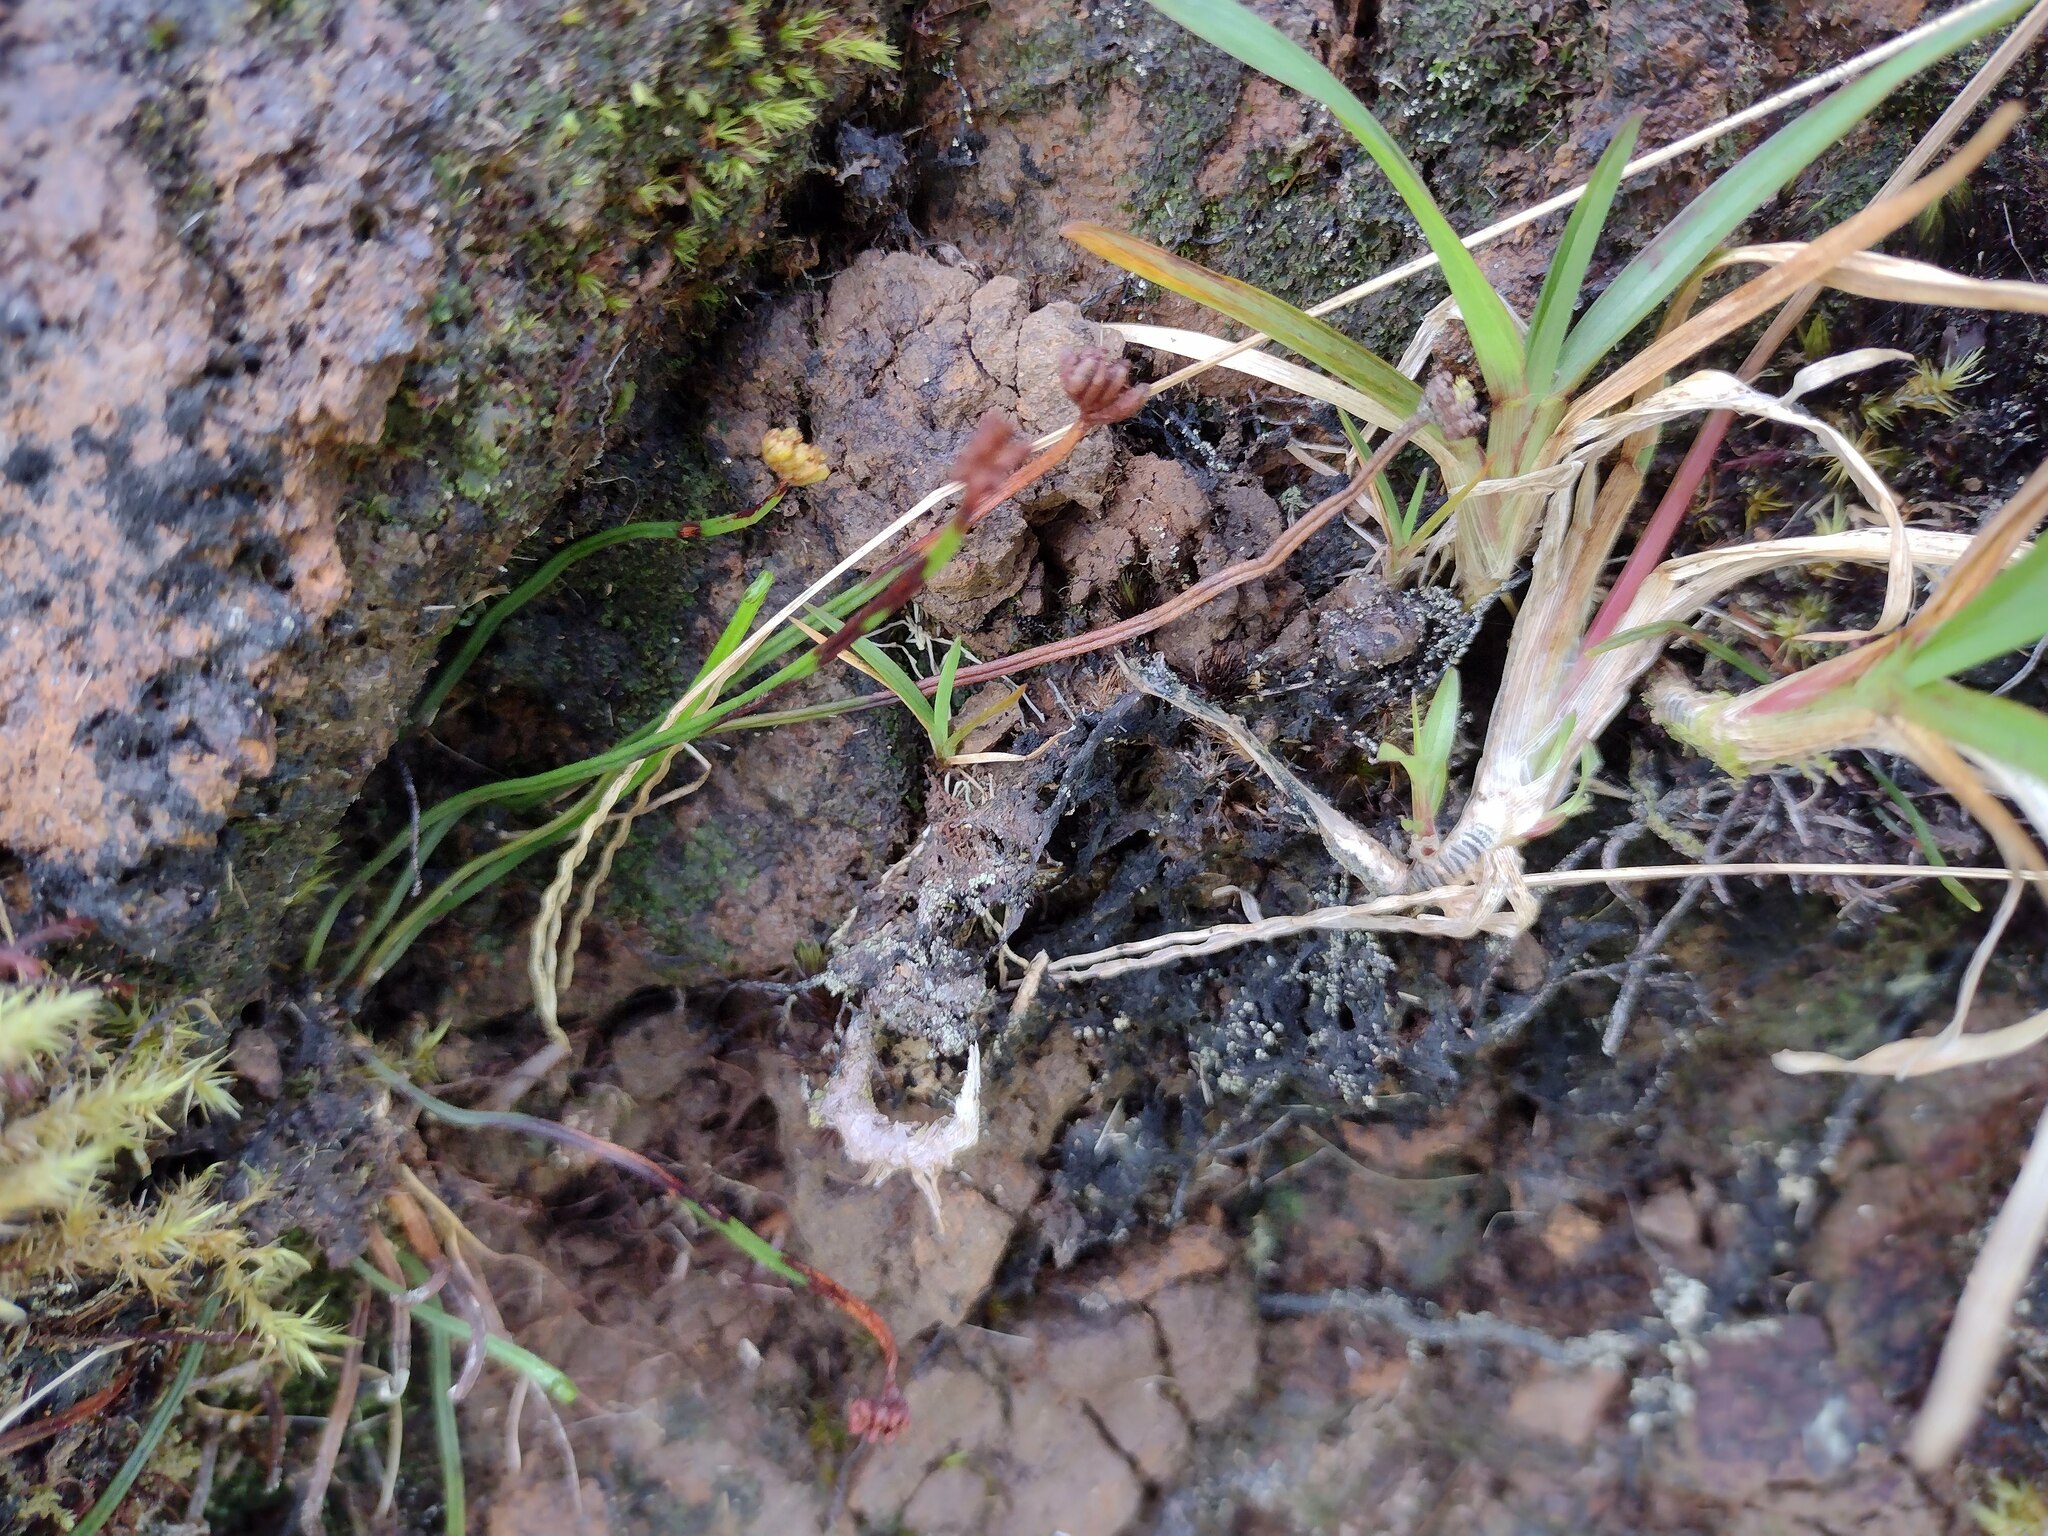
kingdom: Plantae
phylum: Tracheophyta
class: Polypodiopsida
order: Schizaeales
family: Schizaeaceae
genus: Microschizaea
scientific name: Microschizaea robusta
